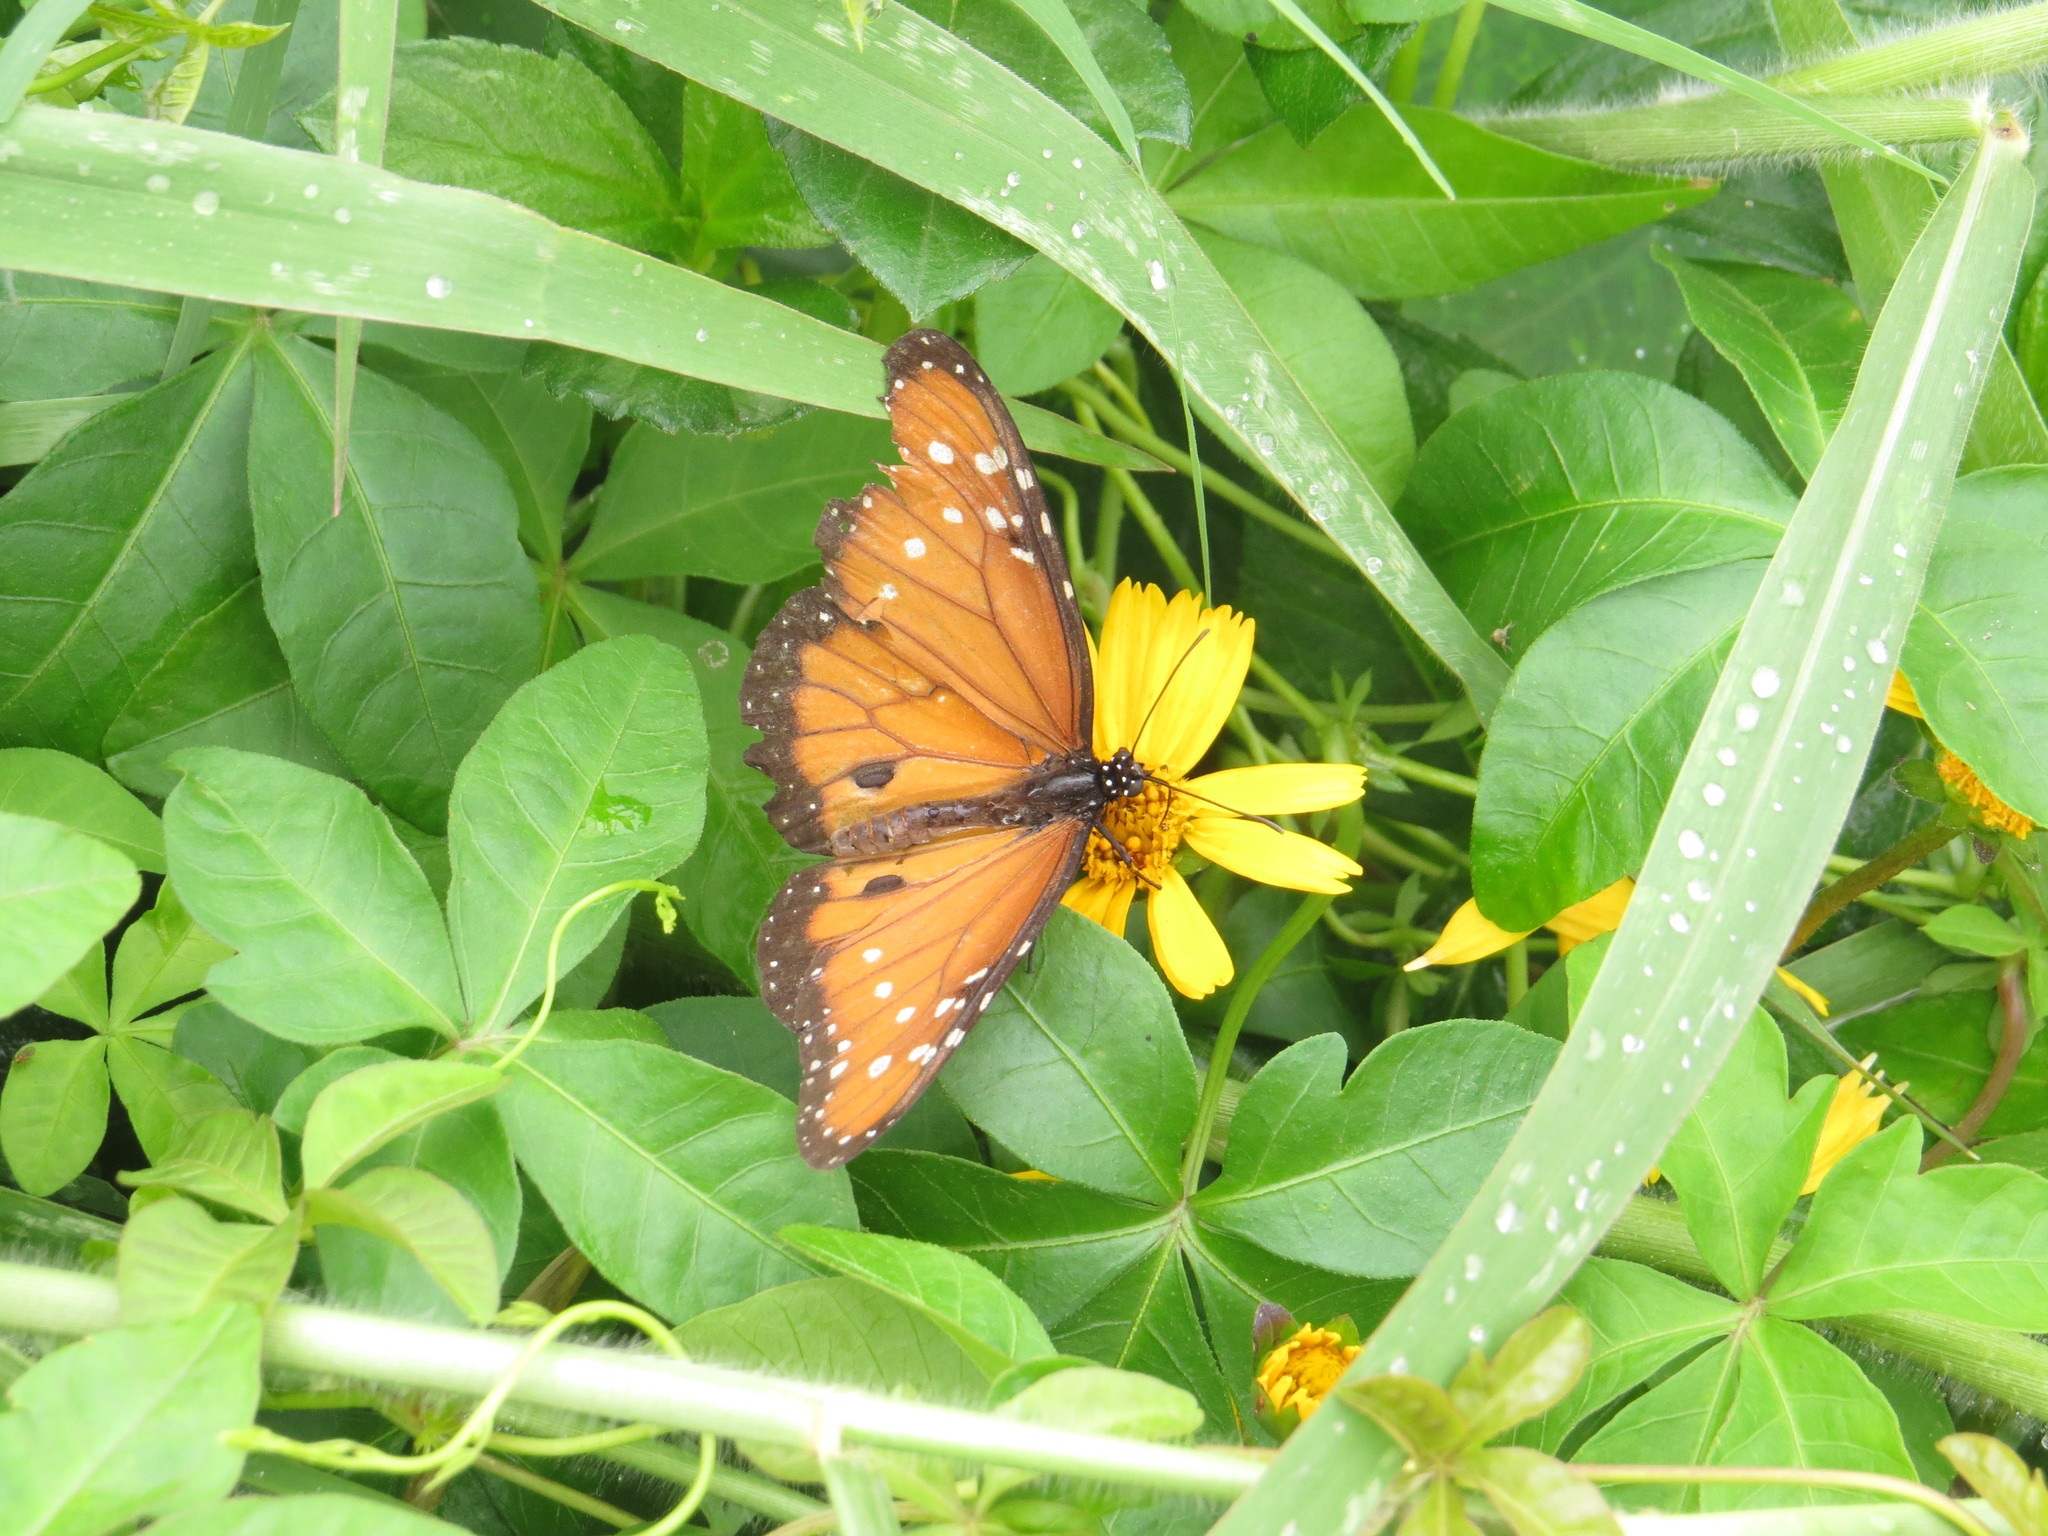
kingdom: Animalia
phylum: Arthropoda
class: Insecta
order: Lepidoptera
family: Nymphalidae
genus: Danaus
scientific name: Danaus gilippus
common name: Queen
